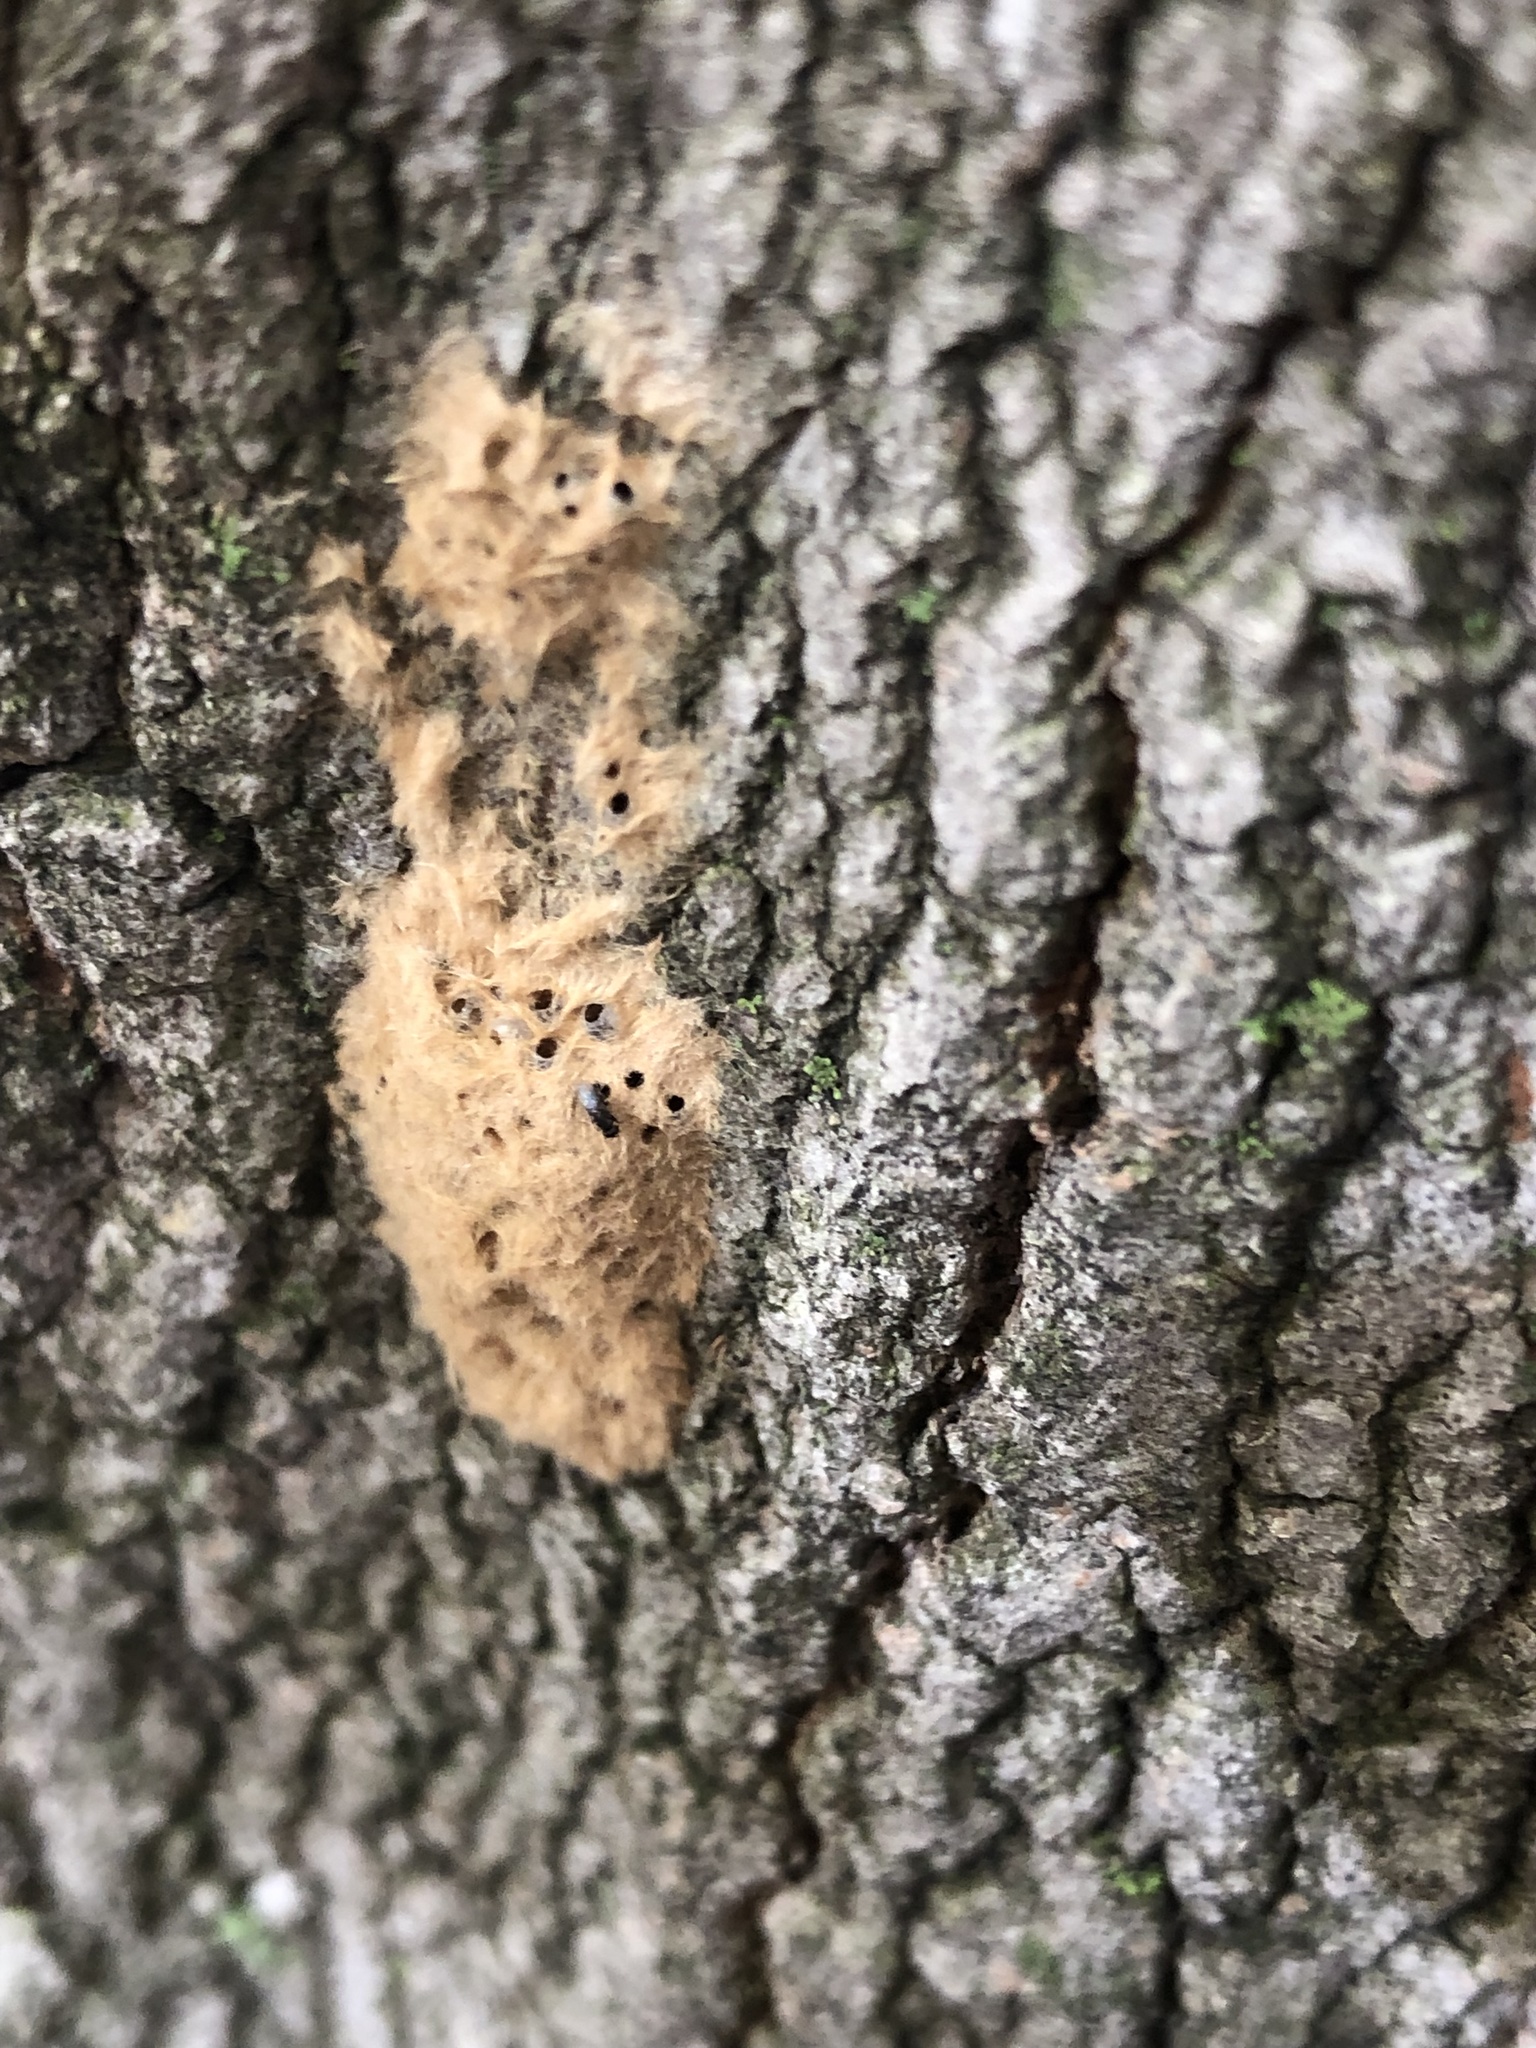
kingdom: Animalia
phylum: Arthropoda
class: Insecta
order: Lepidoptera
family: Erebidae
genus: Lymantria
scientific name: Lymantria dispar
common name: Gypsy moth
